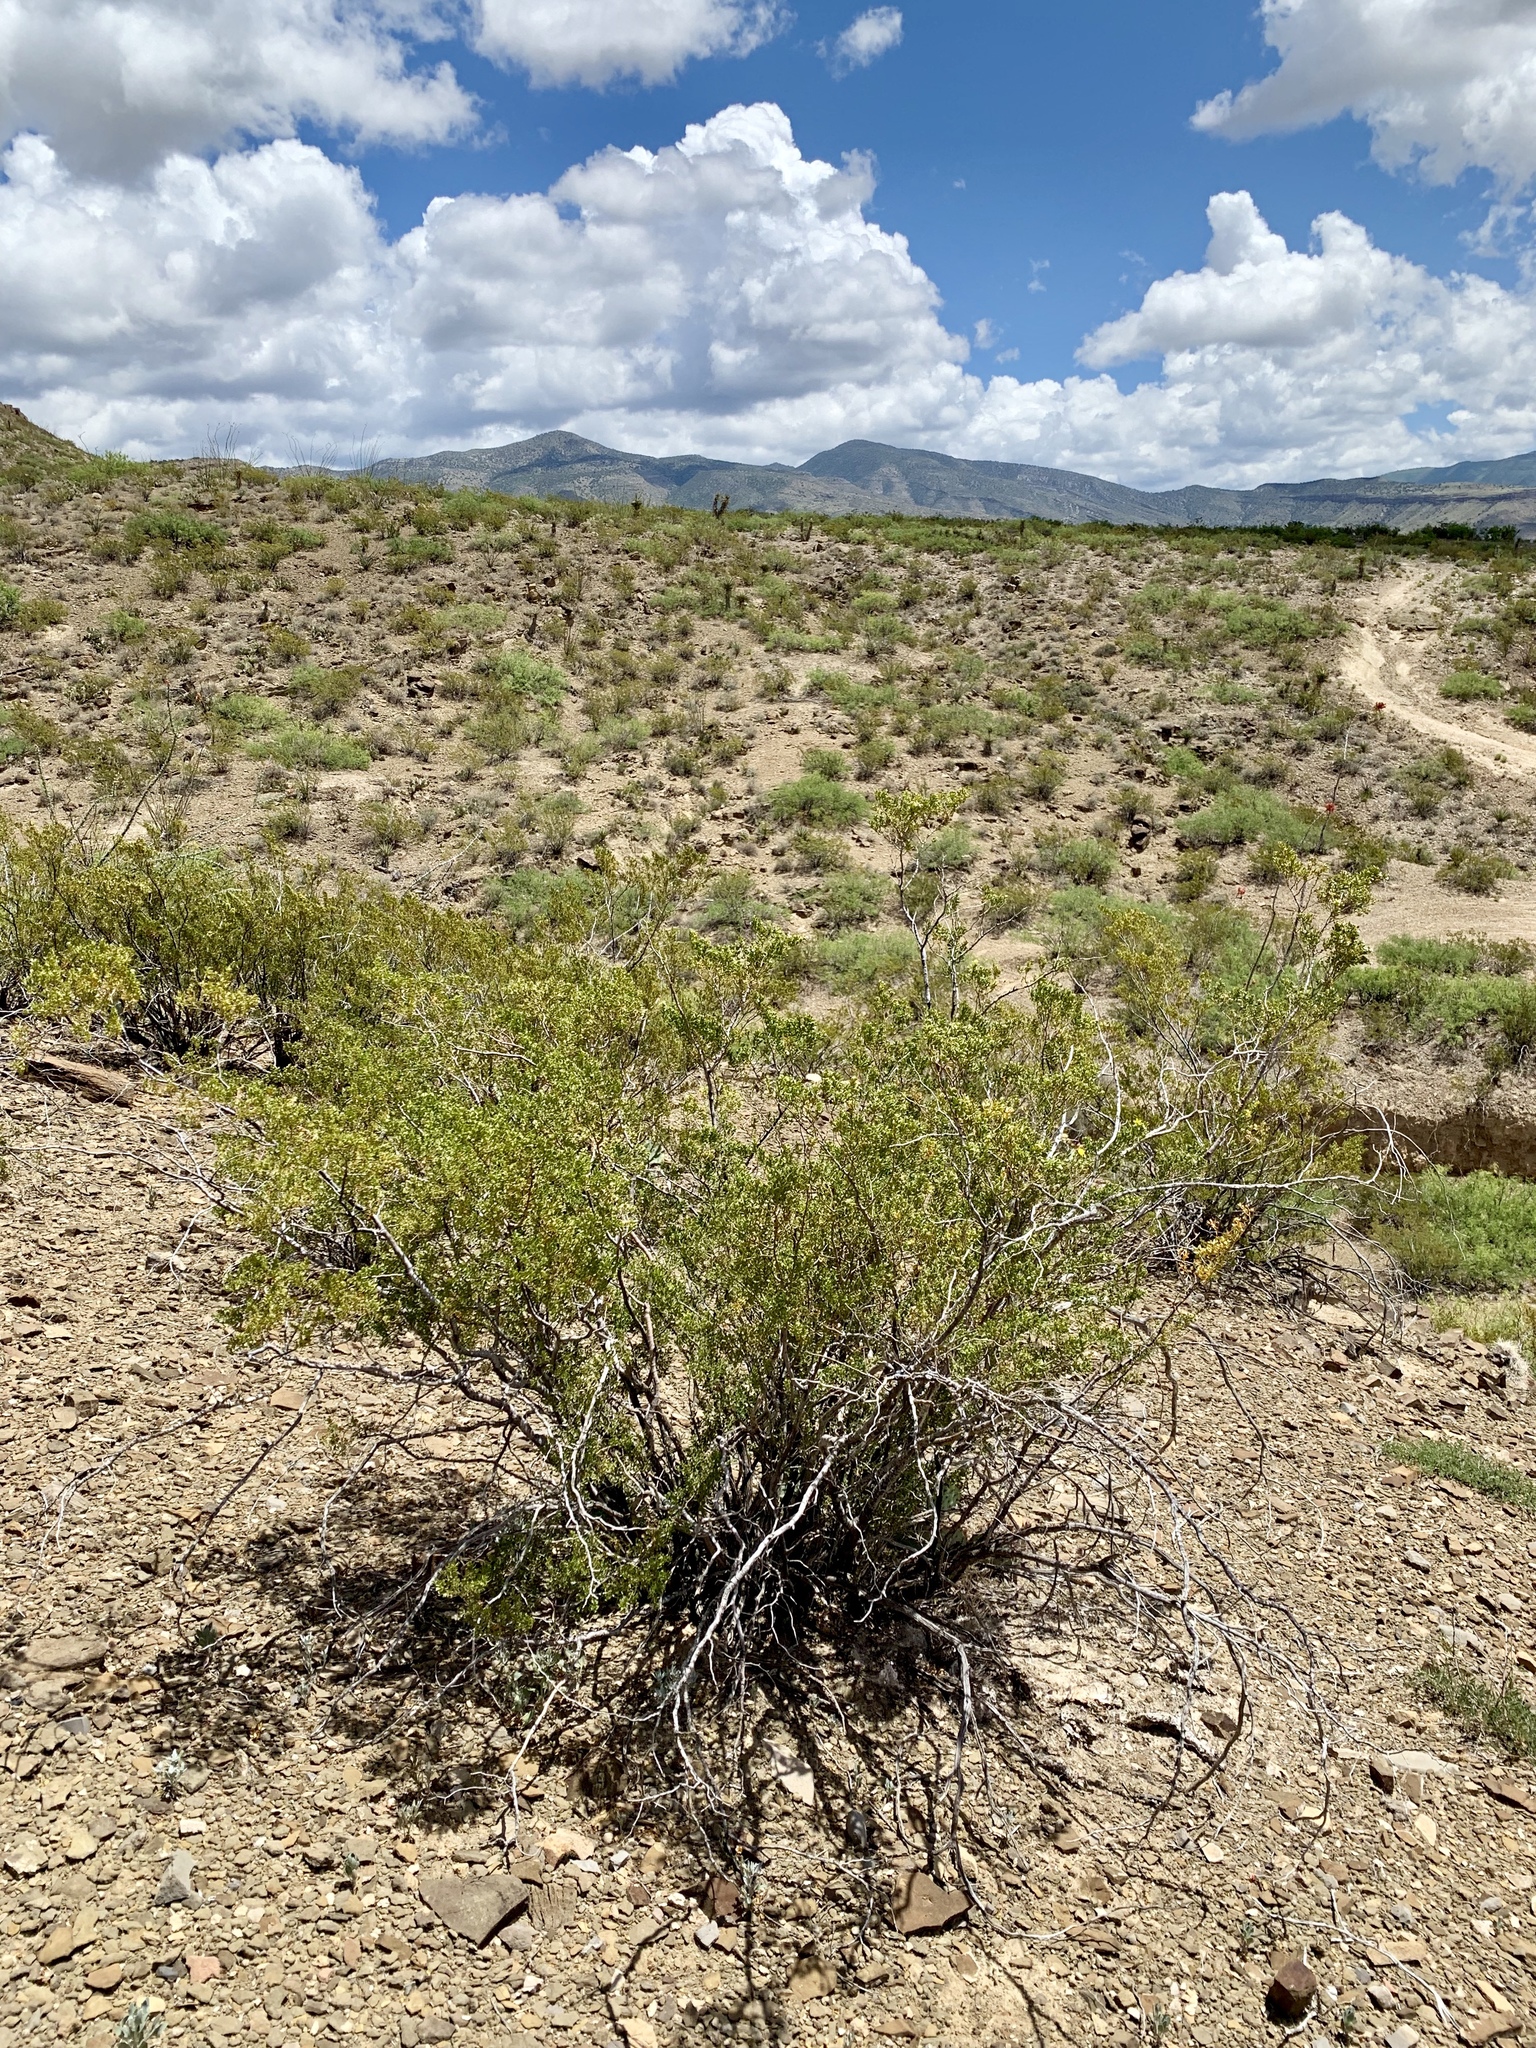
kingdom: Plantae
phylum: Tracheophyta
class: Magnoliopsida
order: Zygophyllales
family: Zygophyllaceae
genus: Larrea
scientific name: Larrea tridentata
